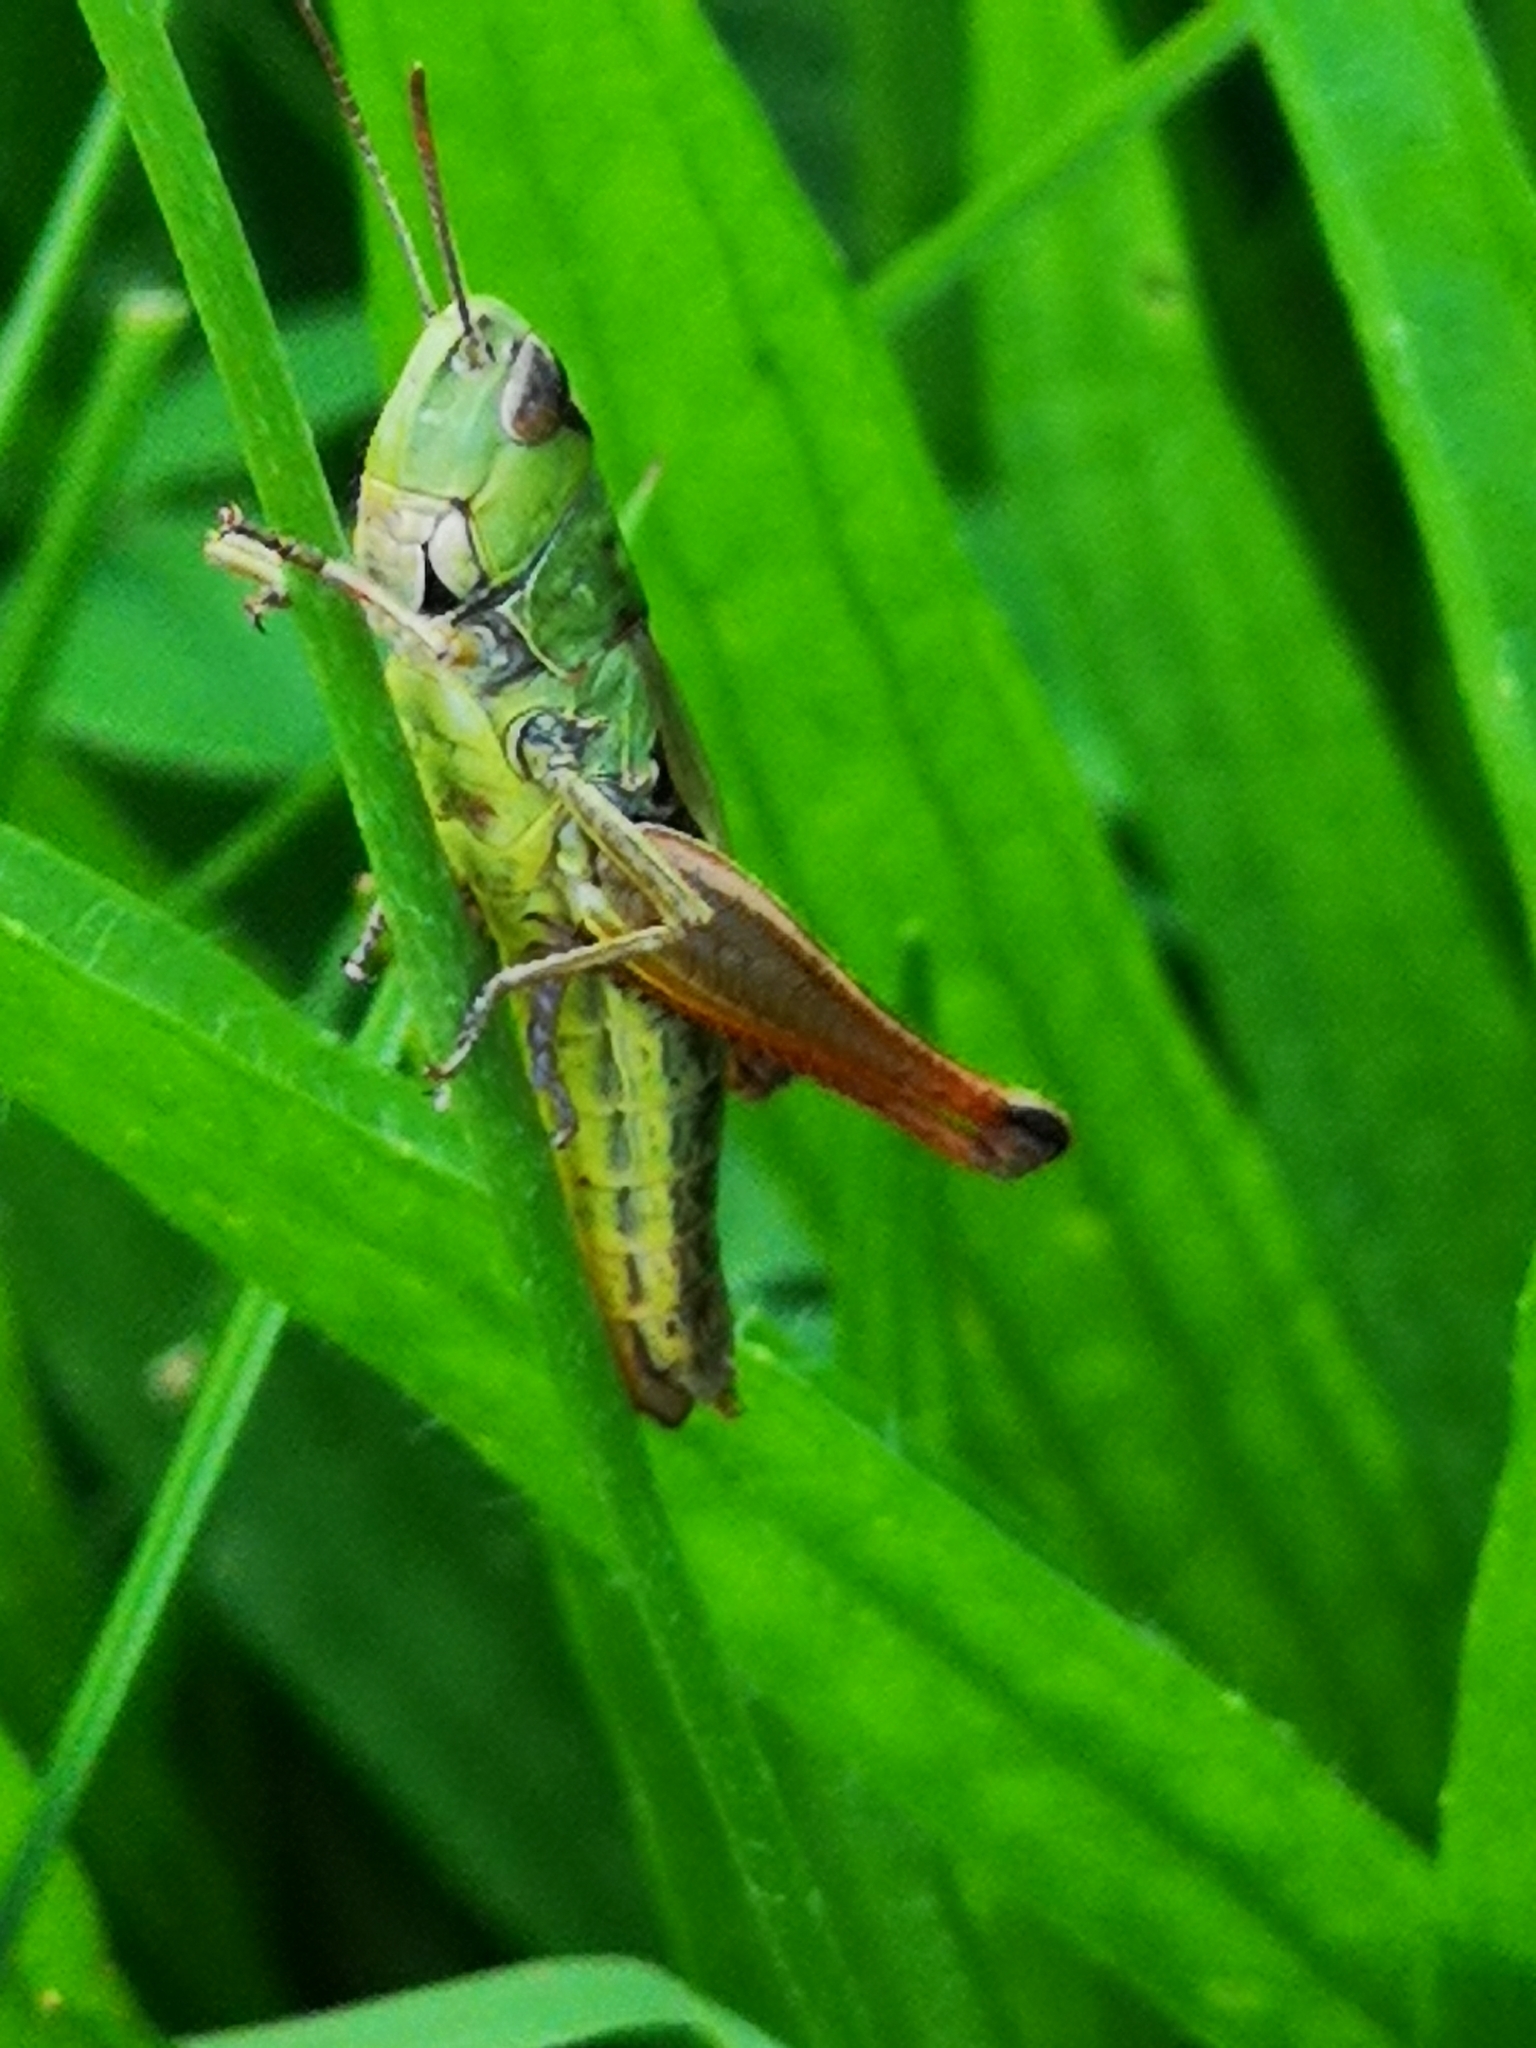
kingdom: Animalia
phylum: Arthropoda
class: Insecta
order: Orthoptera
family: Acrididae
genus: Pseudochorthippus
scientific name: Pseudochorthippus parallelus
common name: Meadow grasshopper
